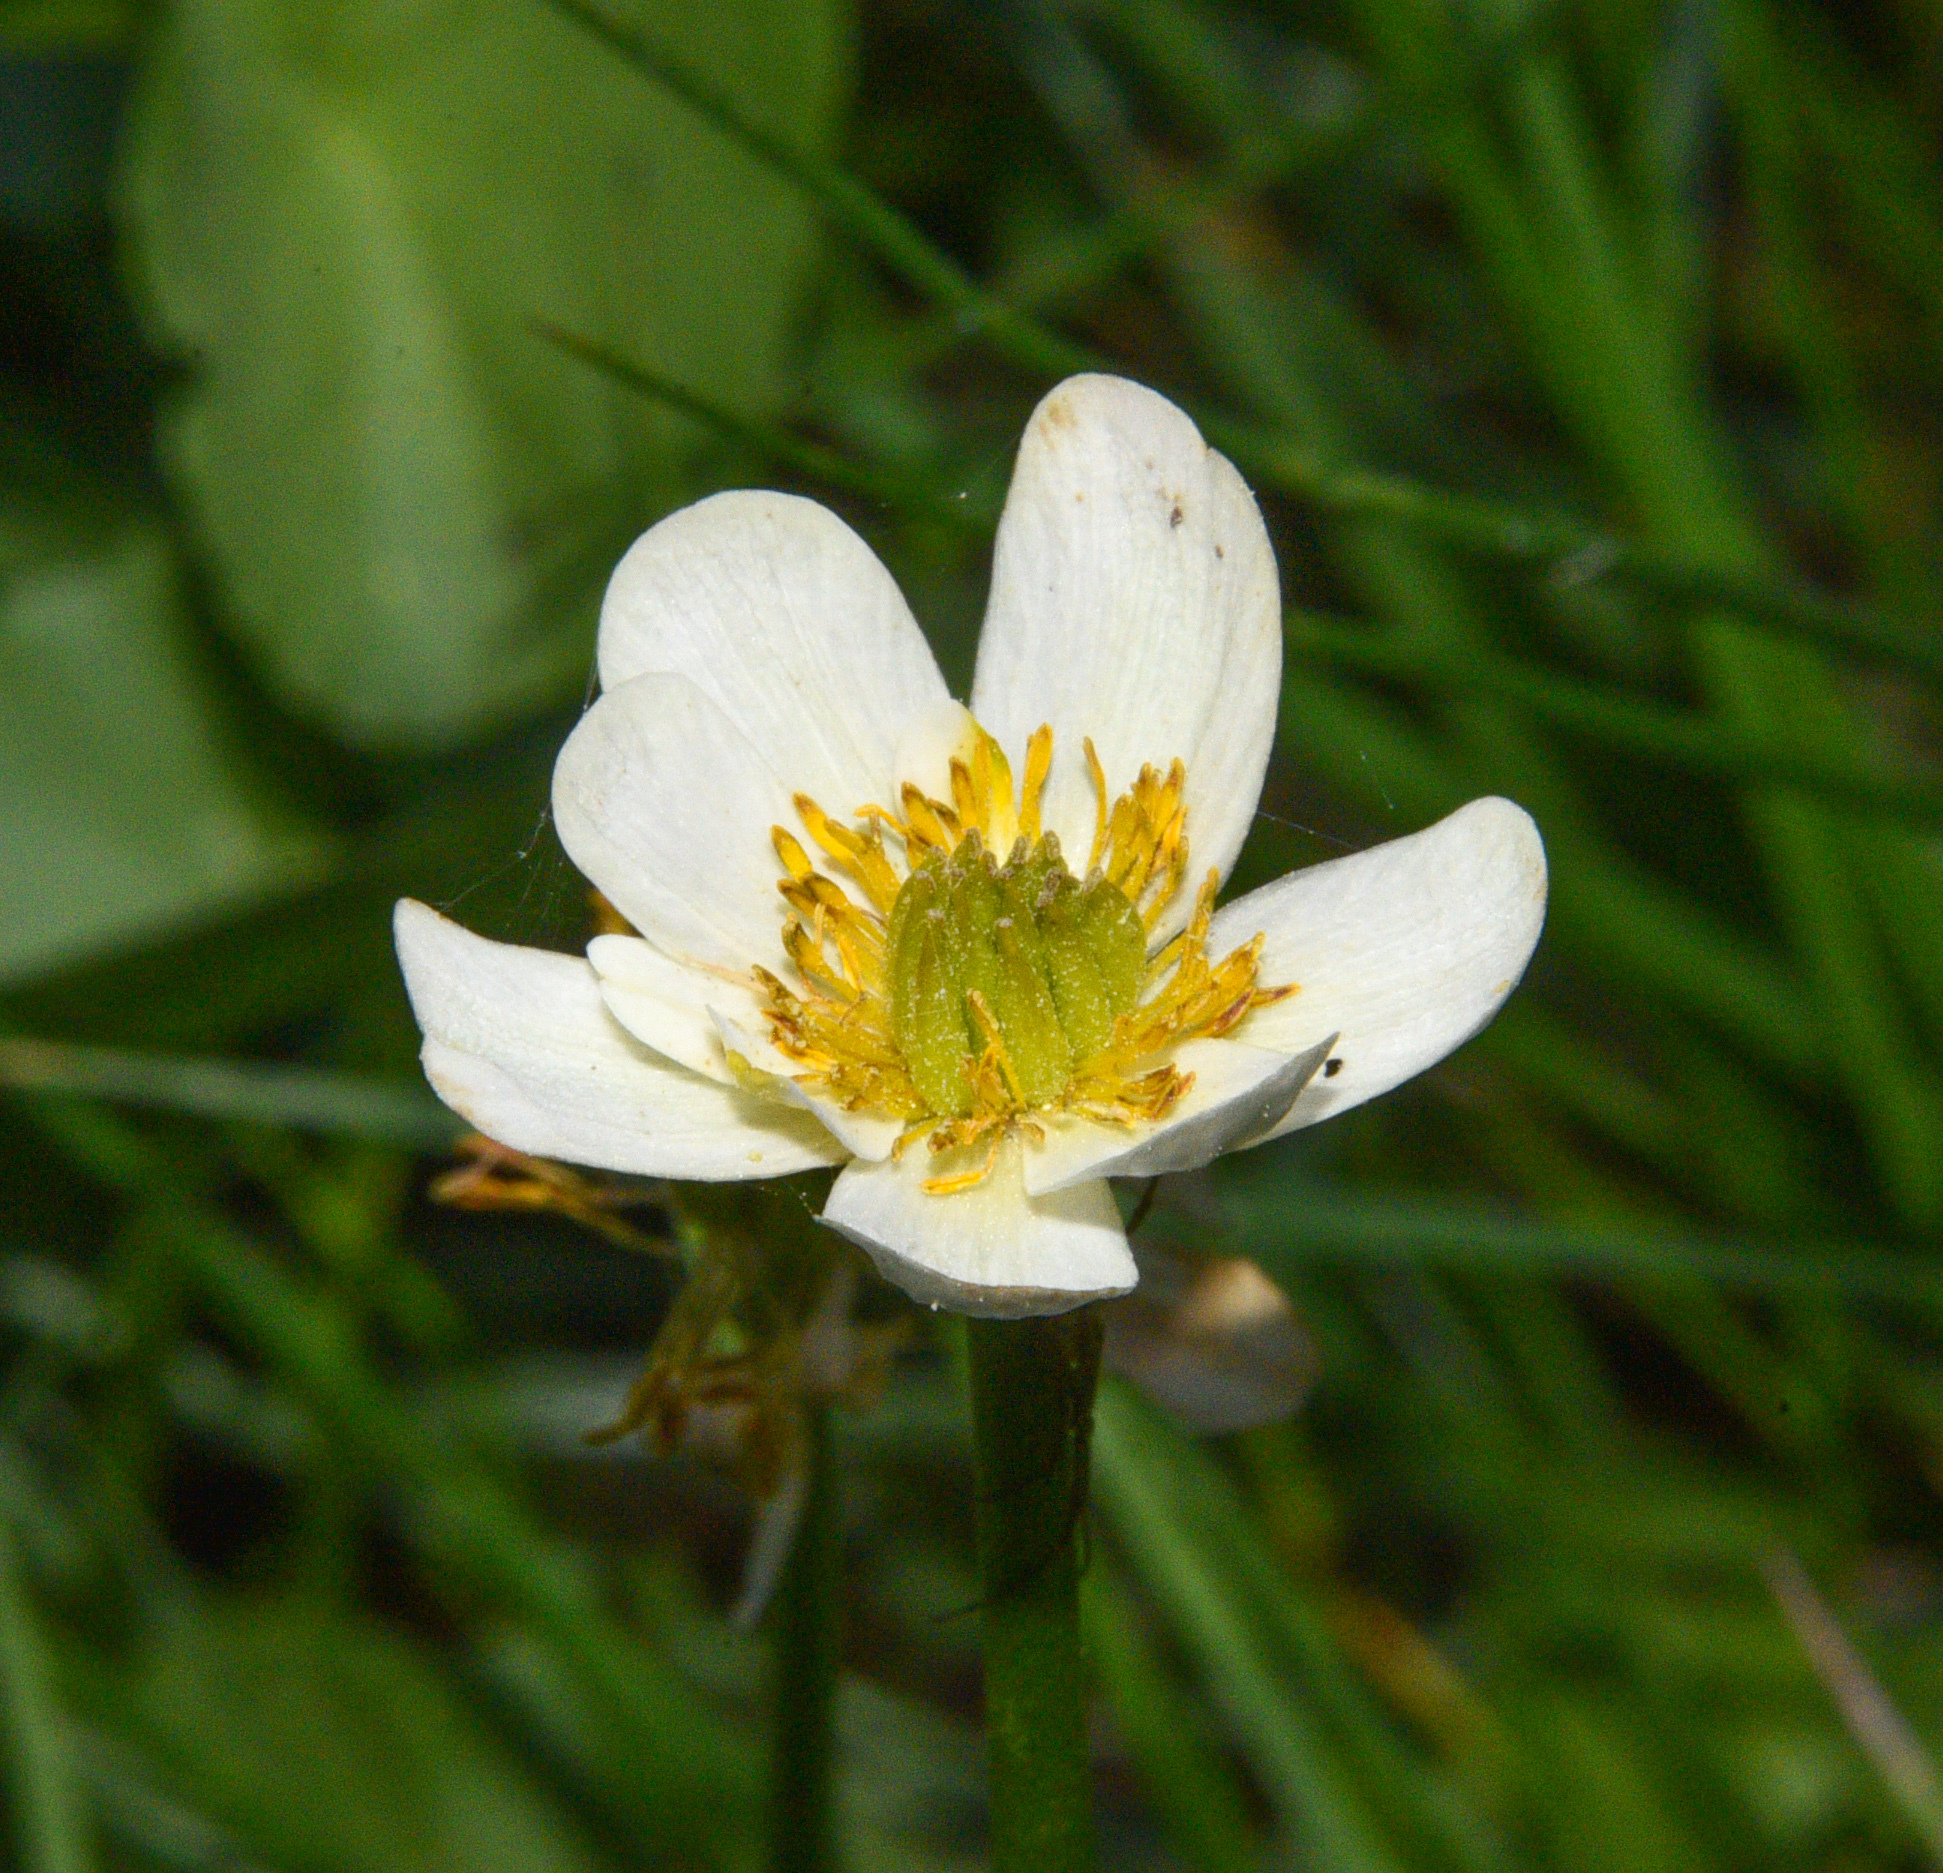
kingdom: Plantae
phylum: Tracheophyta
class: Magnoliopsida
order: Ranunculales
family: Ranunculaceae
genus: Caltha
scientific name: Caltha leptosepala
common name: Elkslip
